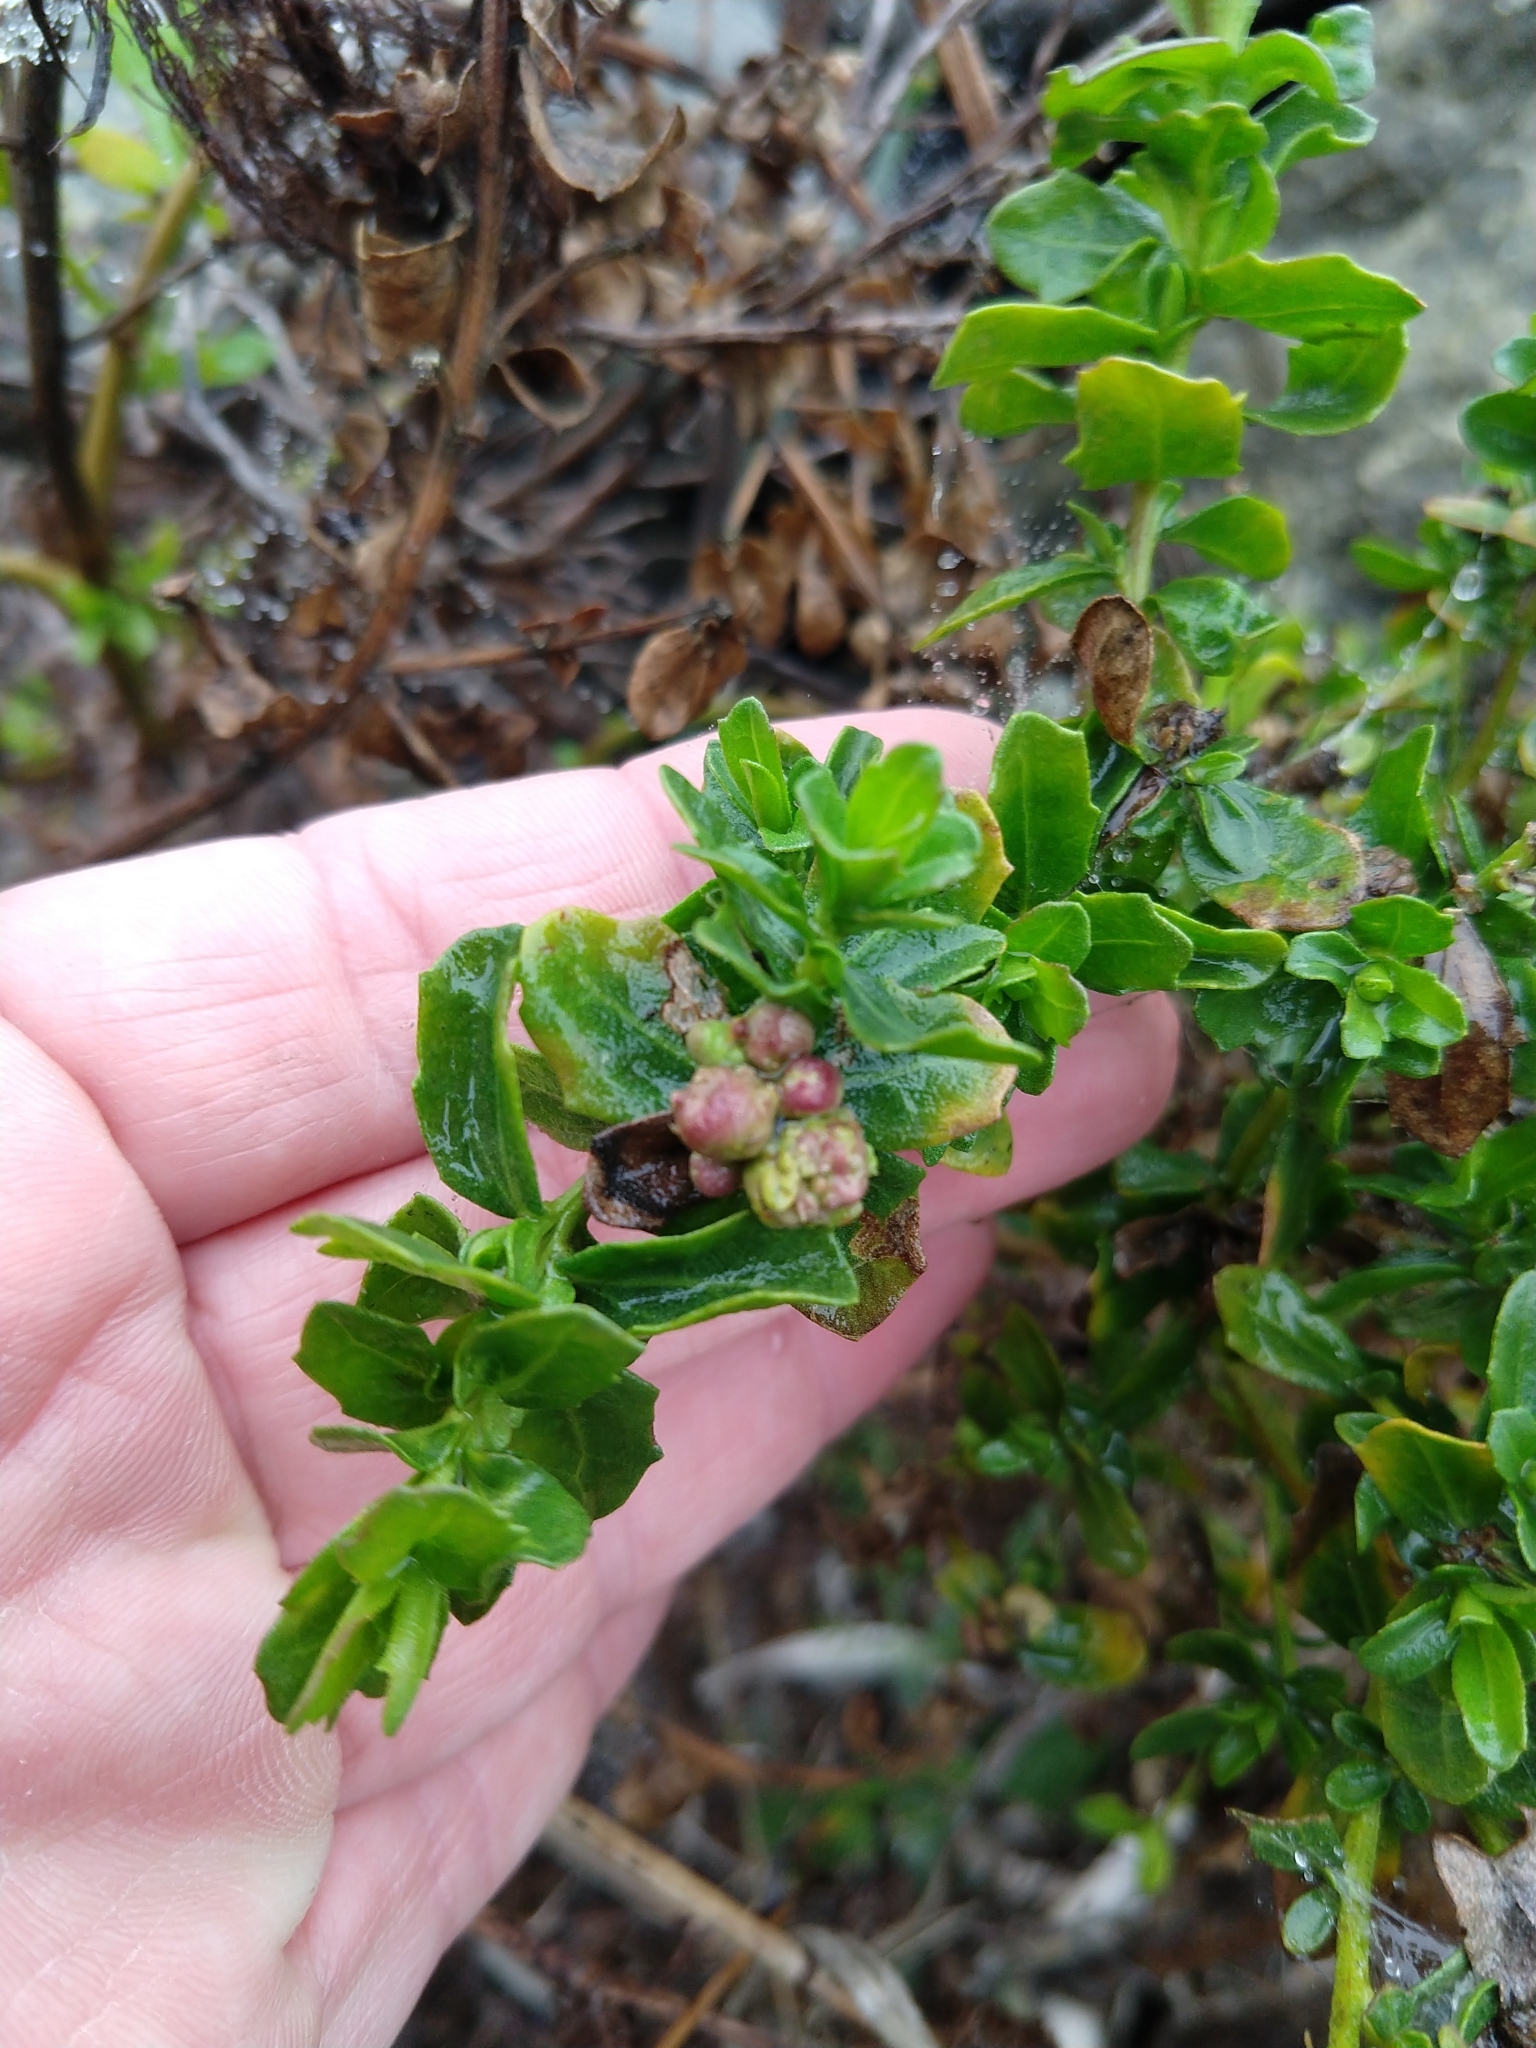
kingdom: Animalia
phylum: Arthropoda
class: Insecta
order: Diptera
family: Cecidomyiidae
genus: Rhopalomyia
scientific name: Rhopalomyia californica
